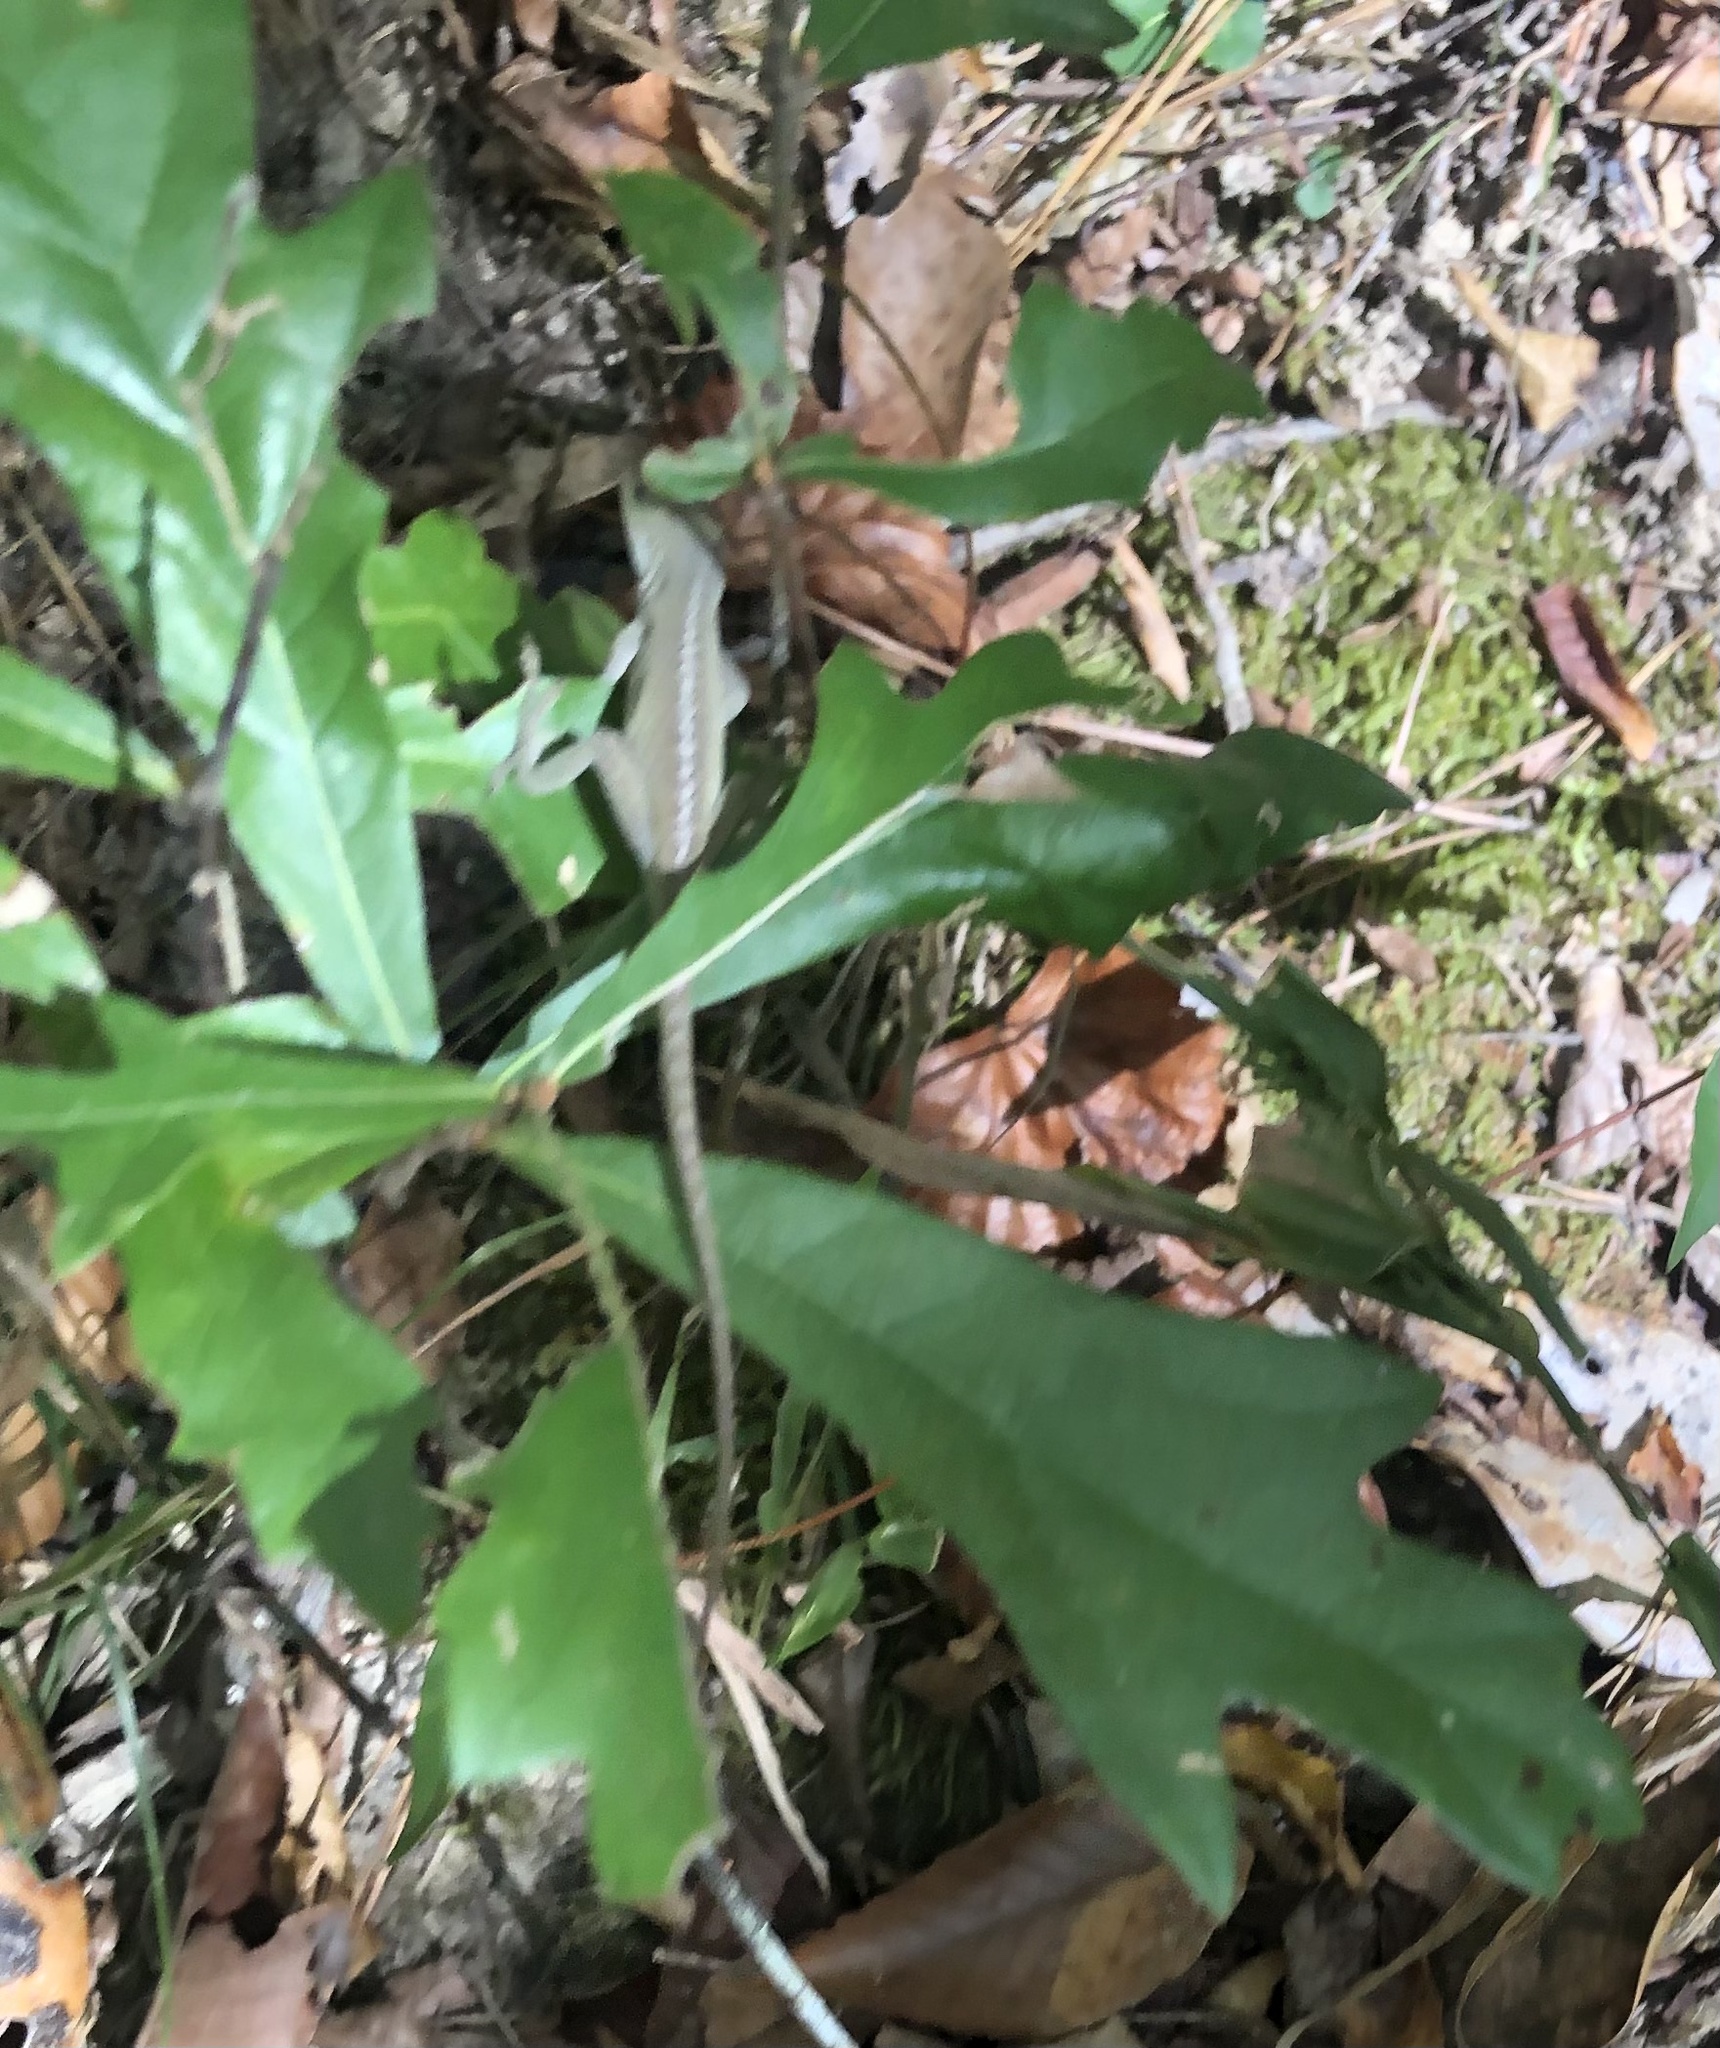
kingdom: Animalia
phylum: Chordata
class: Squamata
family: Dactyloidae
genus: Anolis
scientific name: Anolis carolinensis
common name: Green anole
